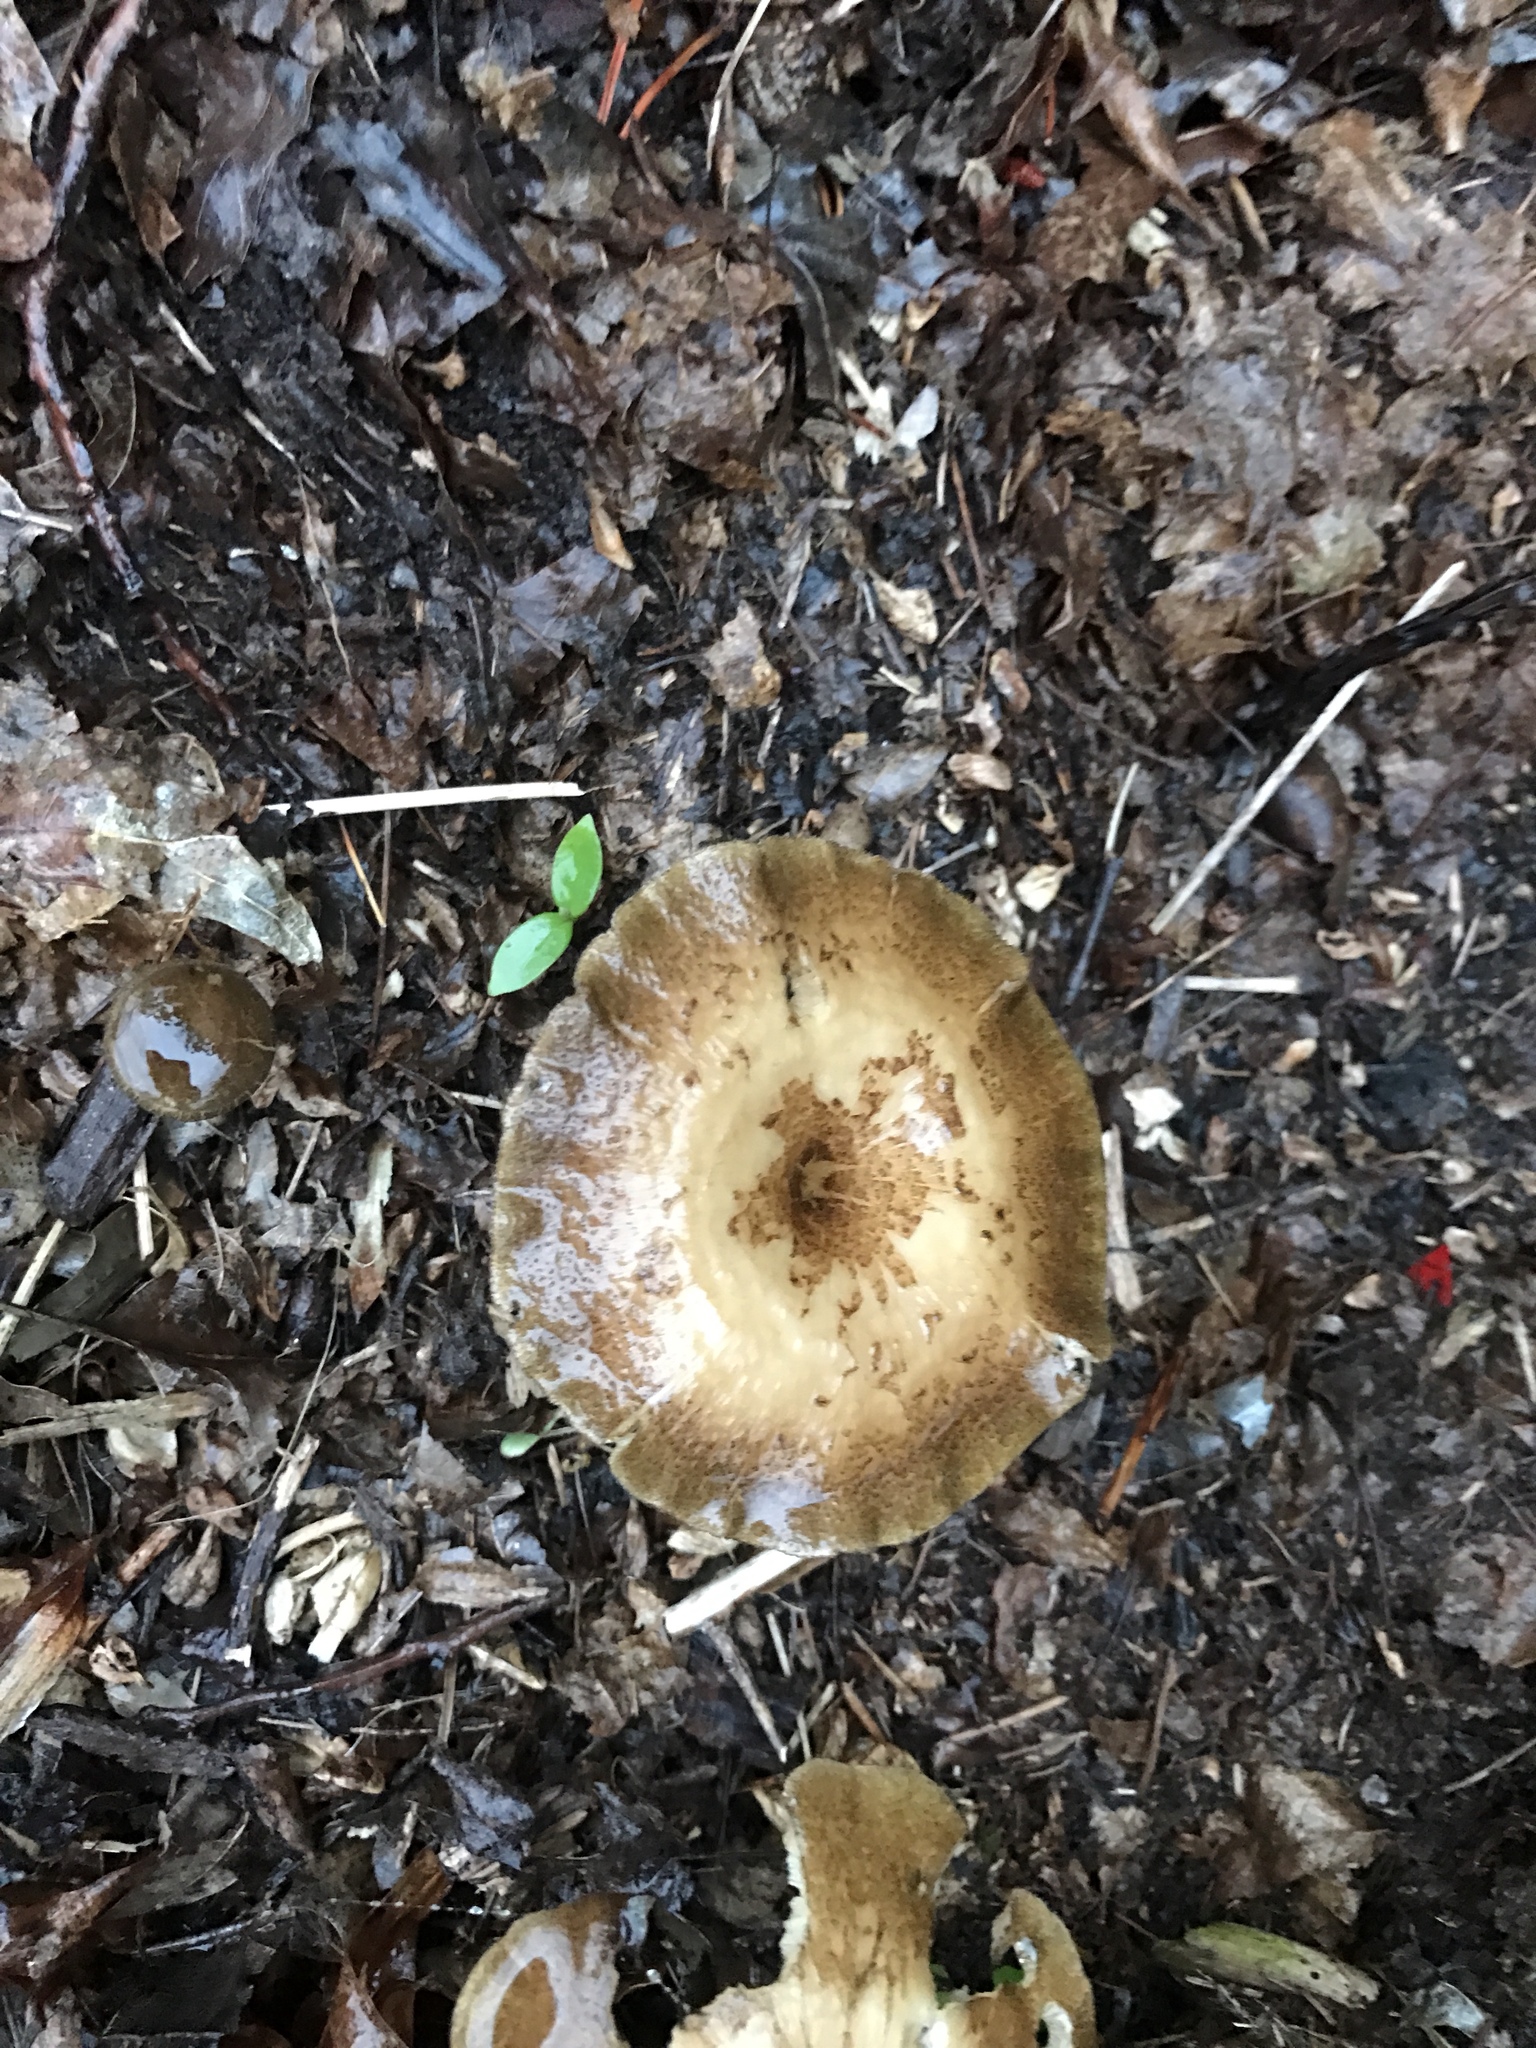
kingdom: Fungi
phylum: Basidiomycota
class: Agaricomycetes
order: Polyporales
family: Polyporaceae
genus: Lentinus
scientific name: Lentinus arcularius
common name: Spring polypore
